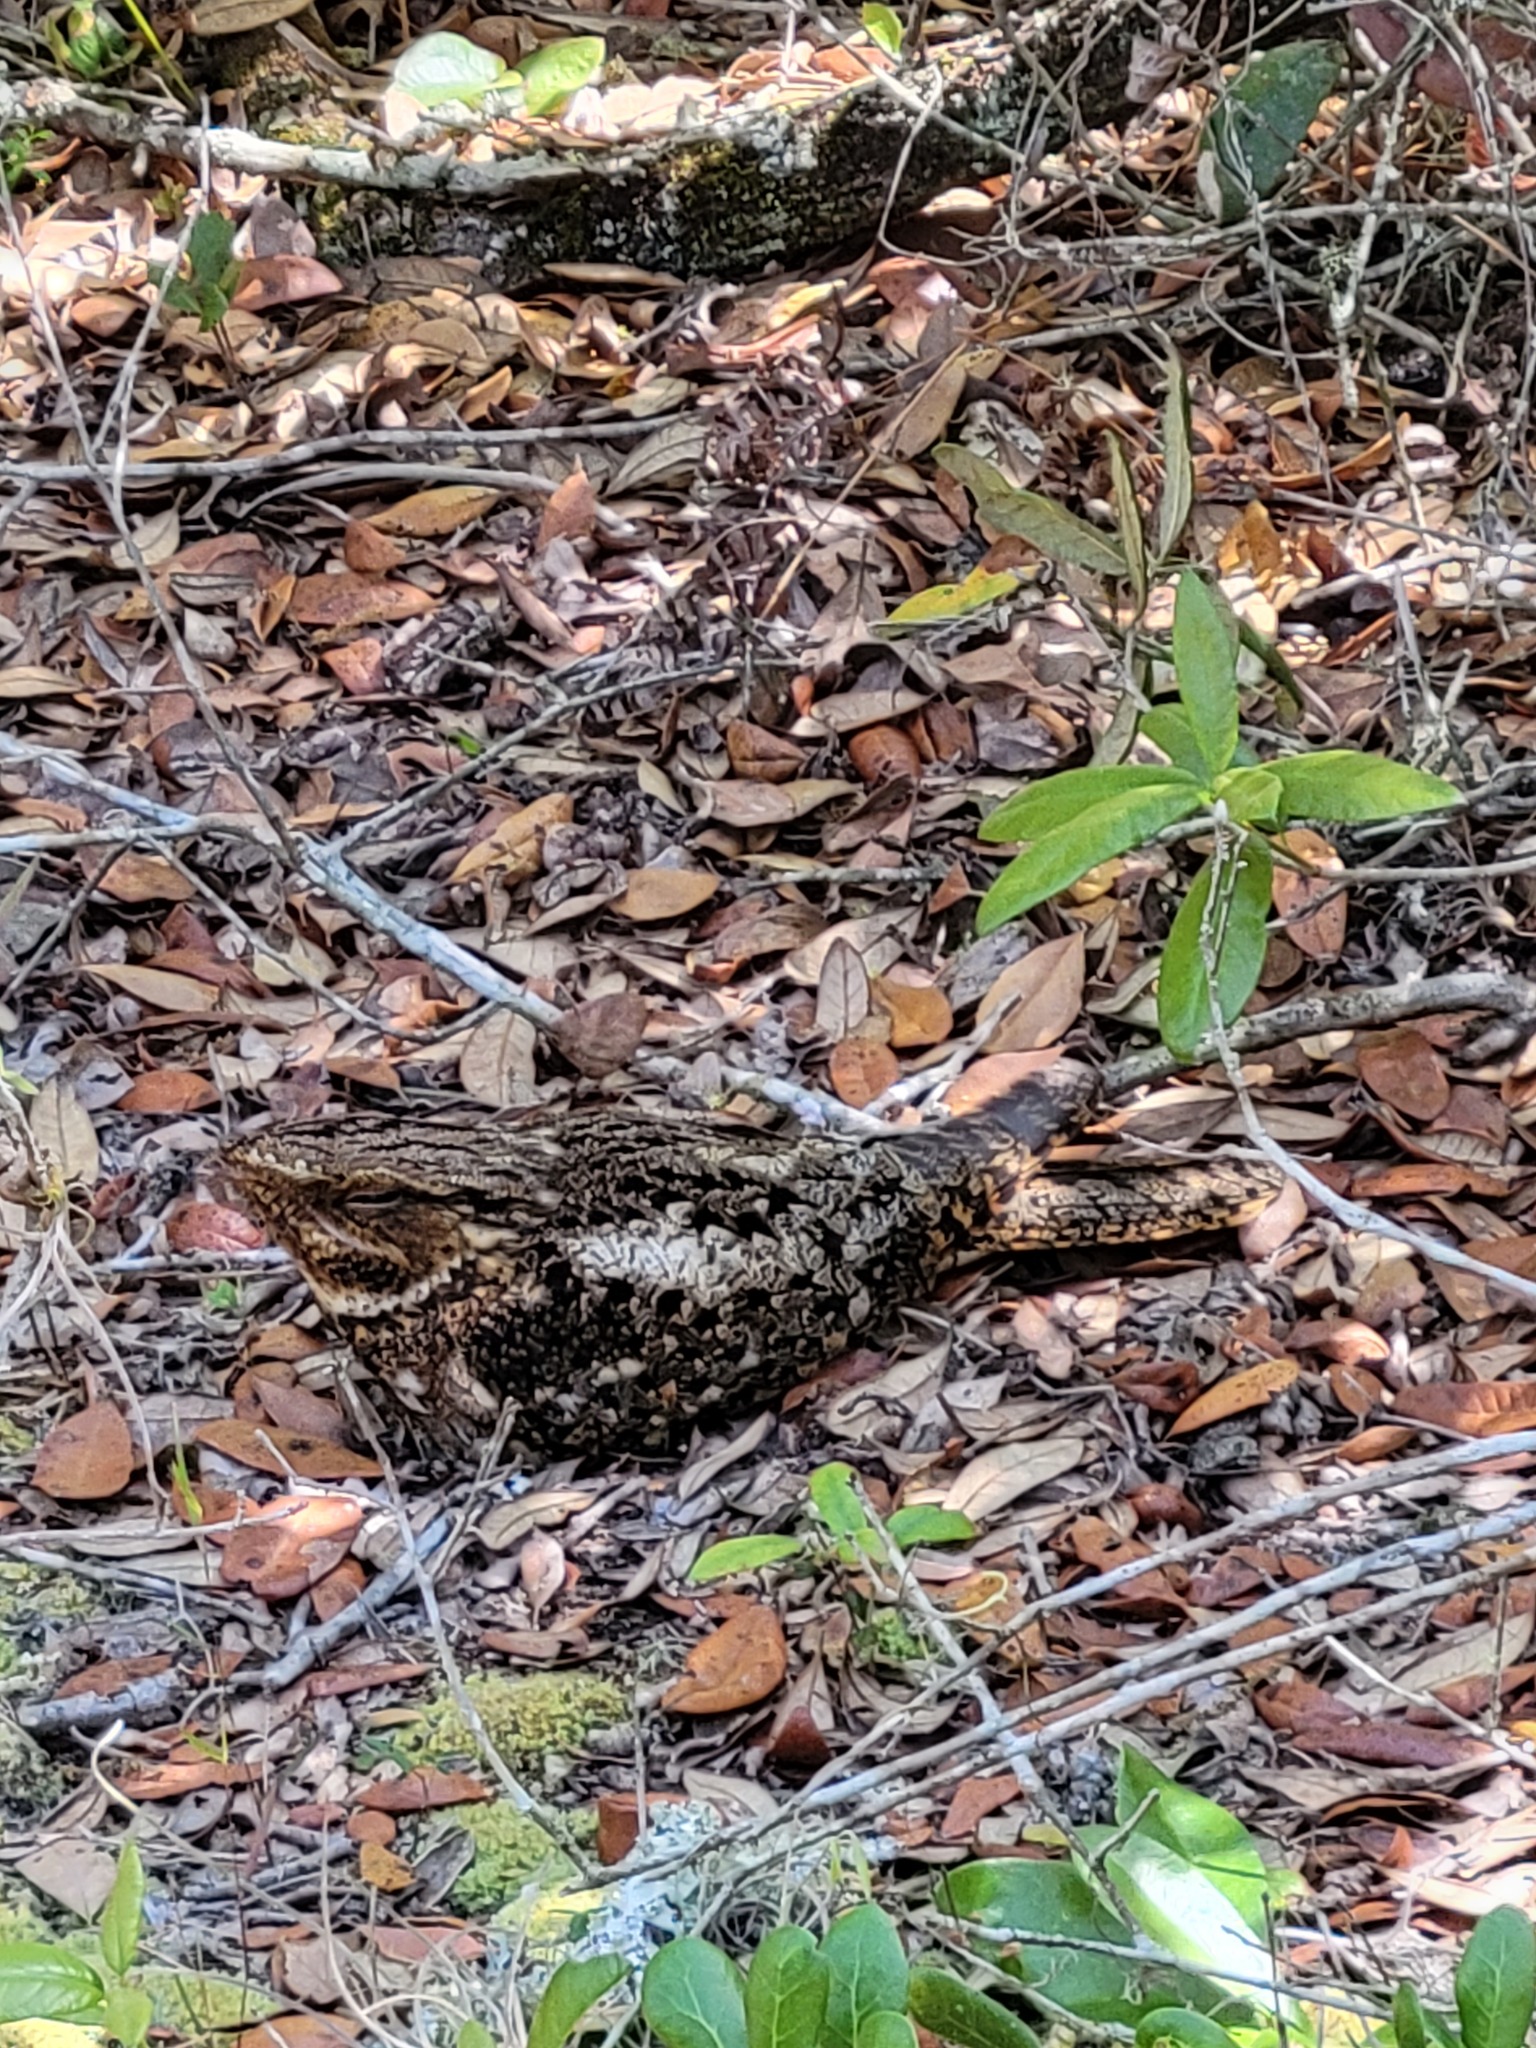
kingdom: Animalia
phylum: Chordata
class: Aves
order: Caprimulgiformes
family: Caprimulgidae
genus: Antrostomus
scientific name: Antrostomus carolinensis
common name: Chuck-will's-widow
